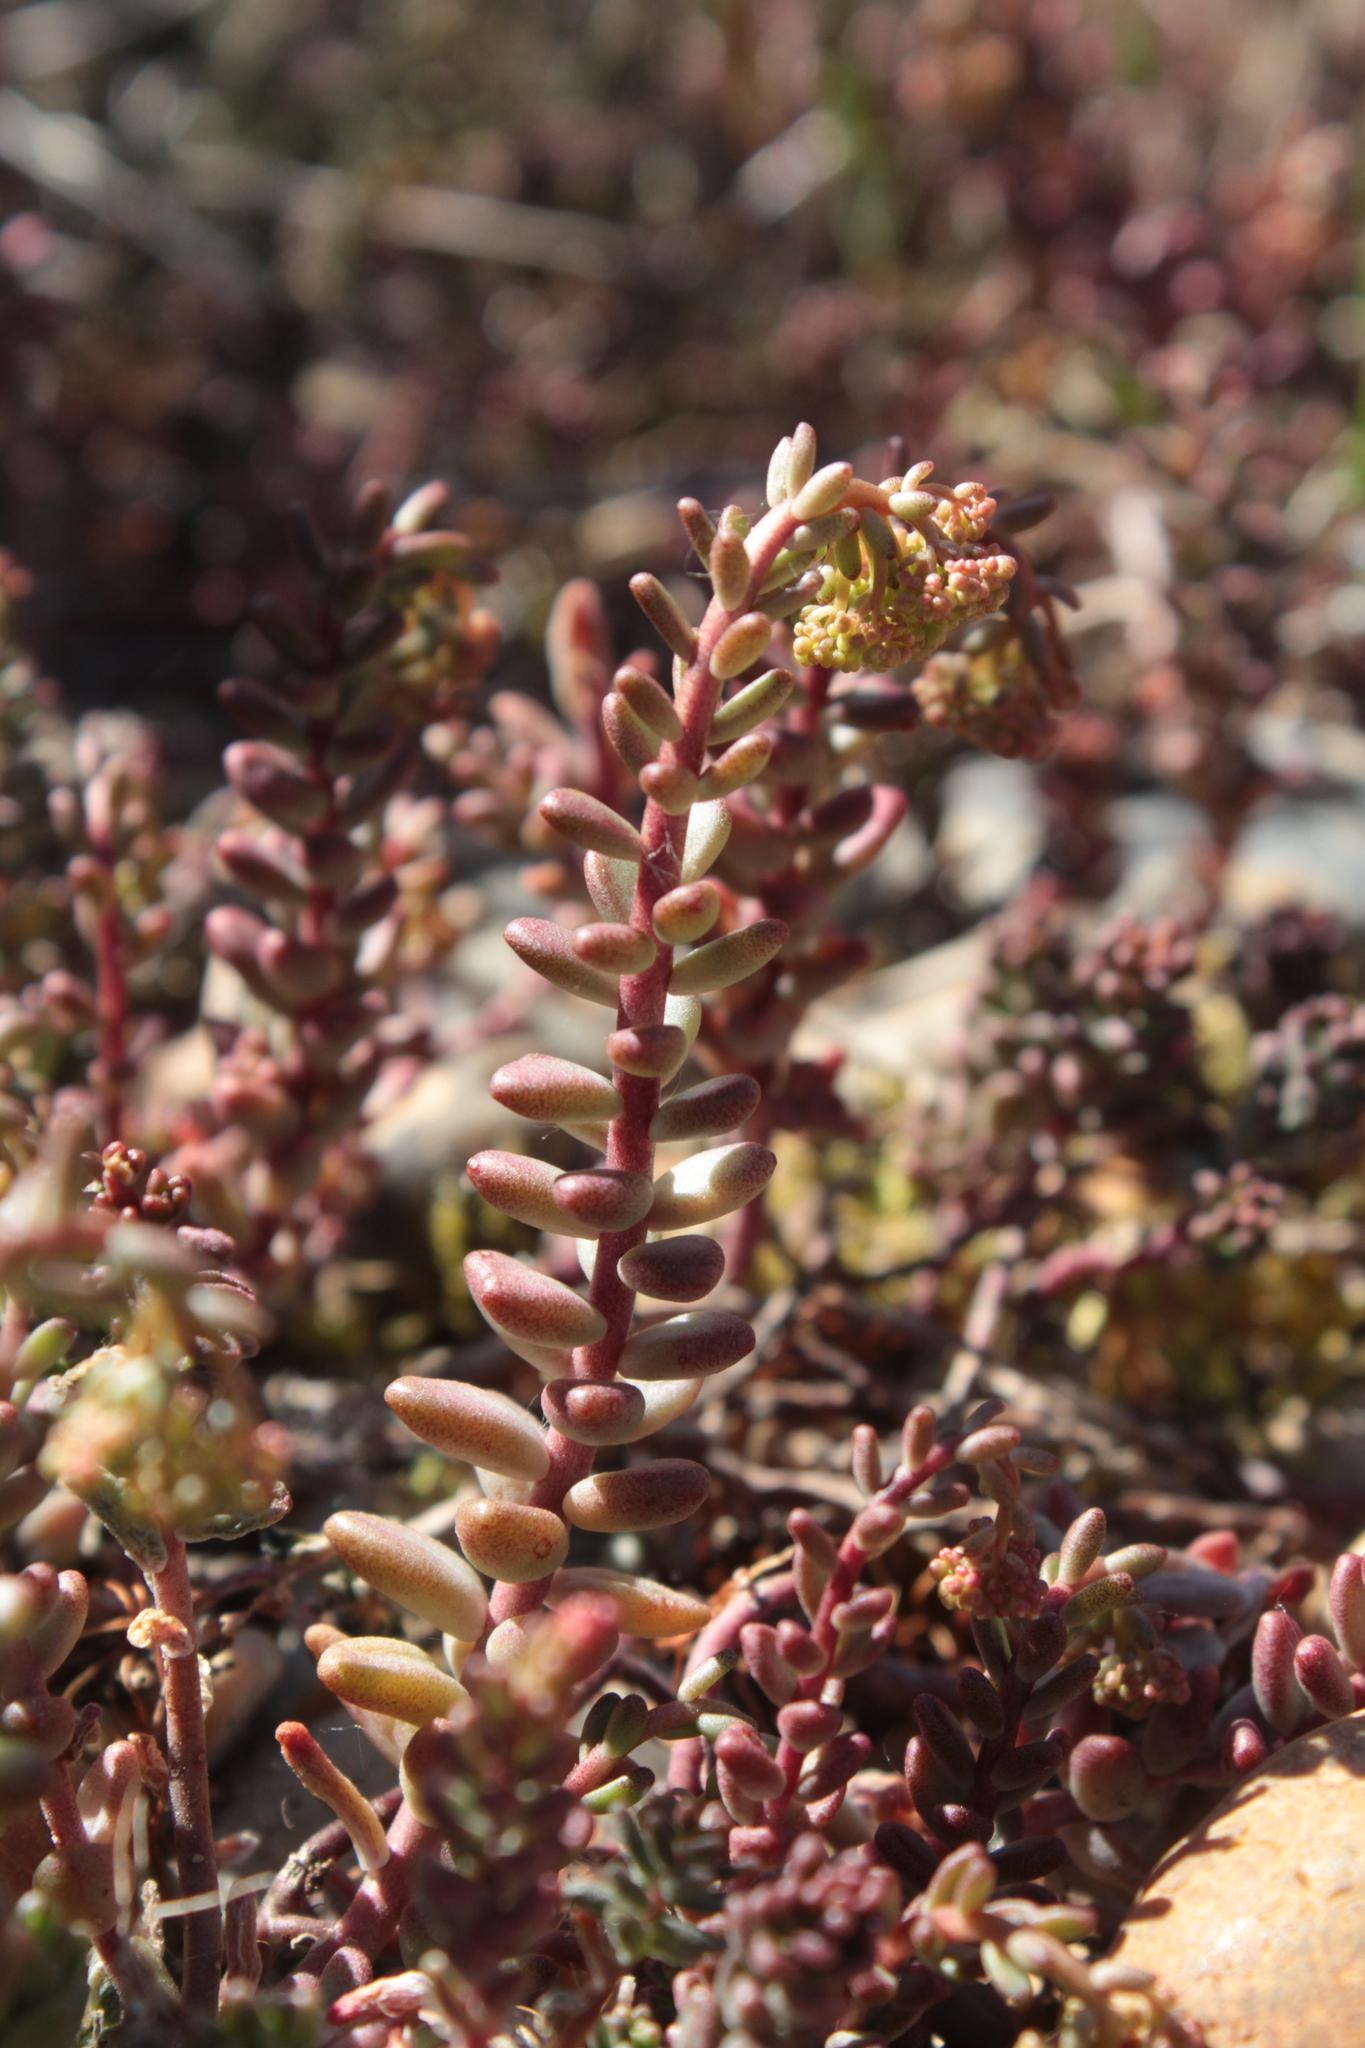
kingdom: Plantae
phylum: Tracheophyta
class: Magnoliopsida
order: Saxifragales
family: Crassulaceae
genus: Sedum
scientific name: Sedum album
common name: White stonecrop
